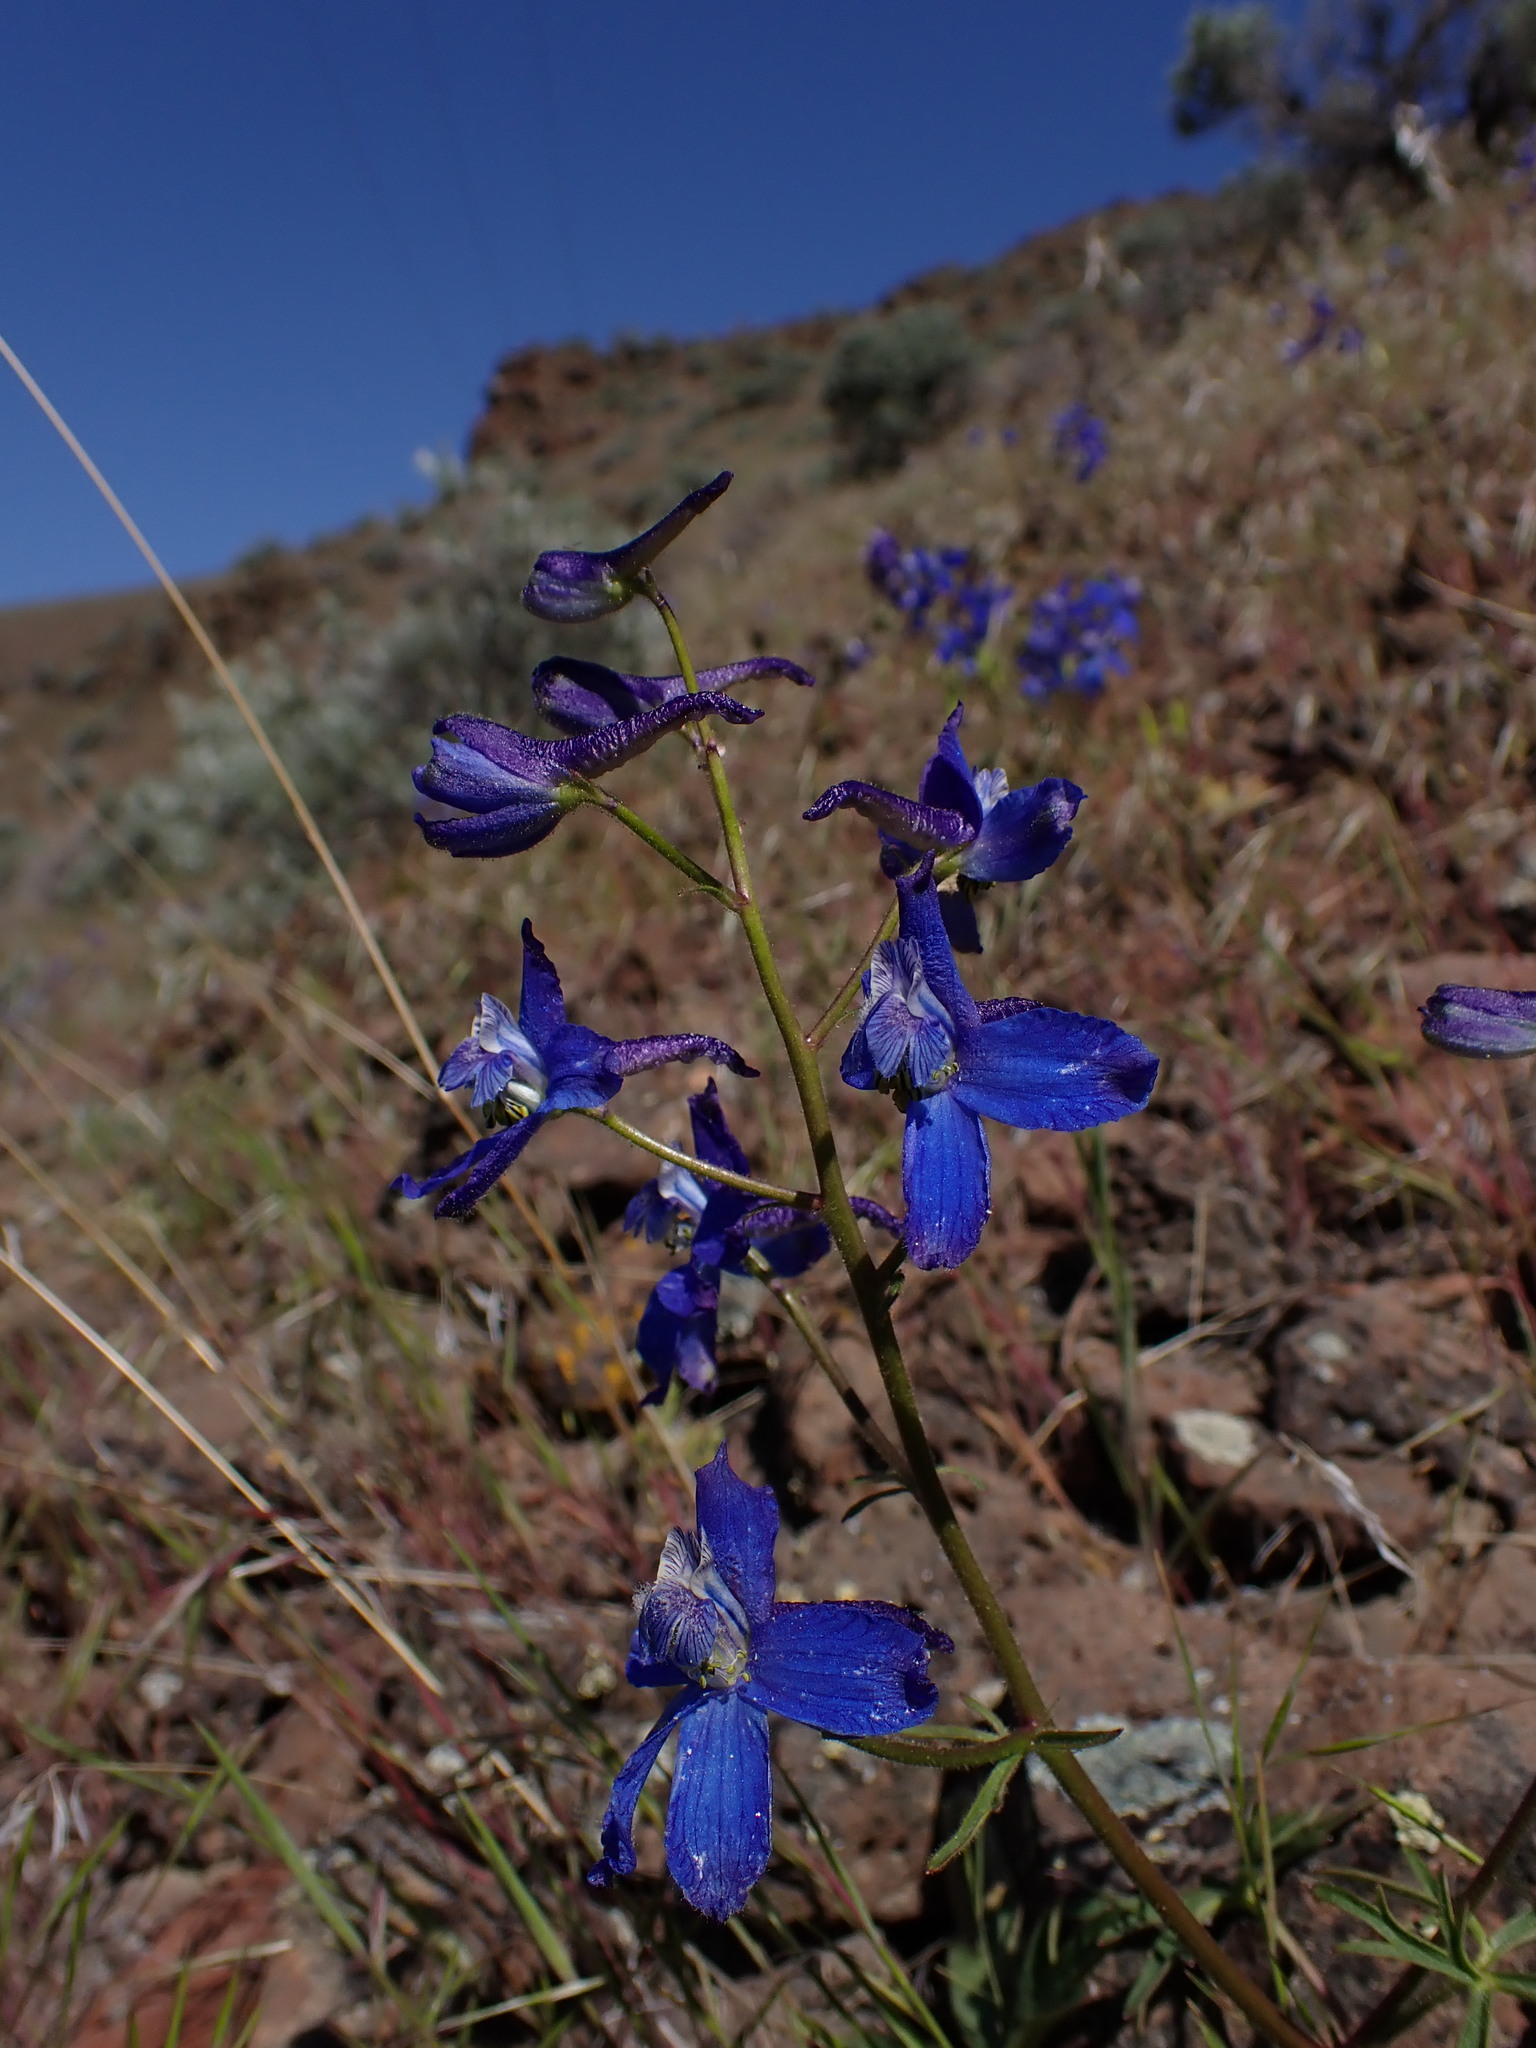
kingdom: Plantae
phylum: Tracheophyta
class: Magnoliopsida
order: Ranunculales
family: Ranunculaceae
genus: Delphinium
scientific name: Delphinium nuttallianum
